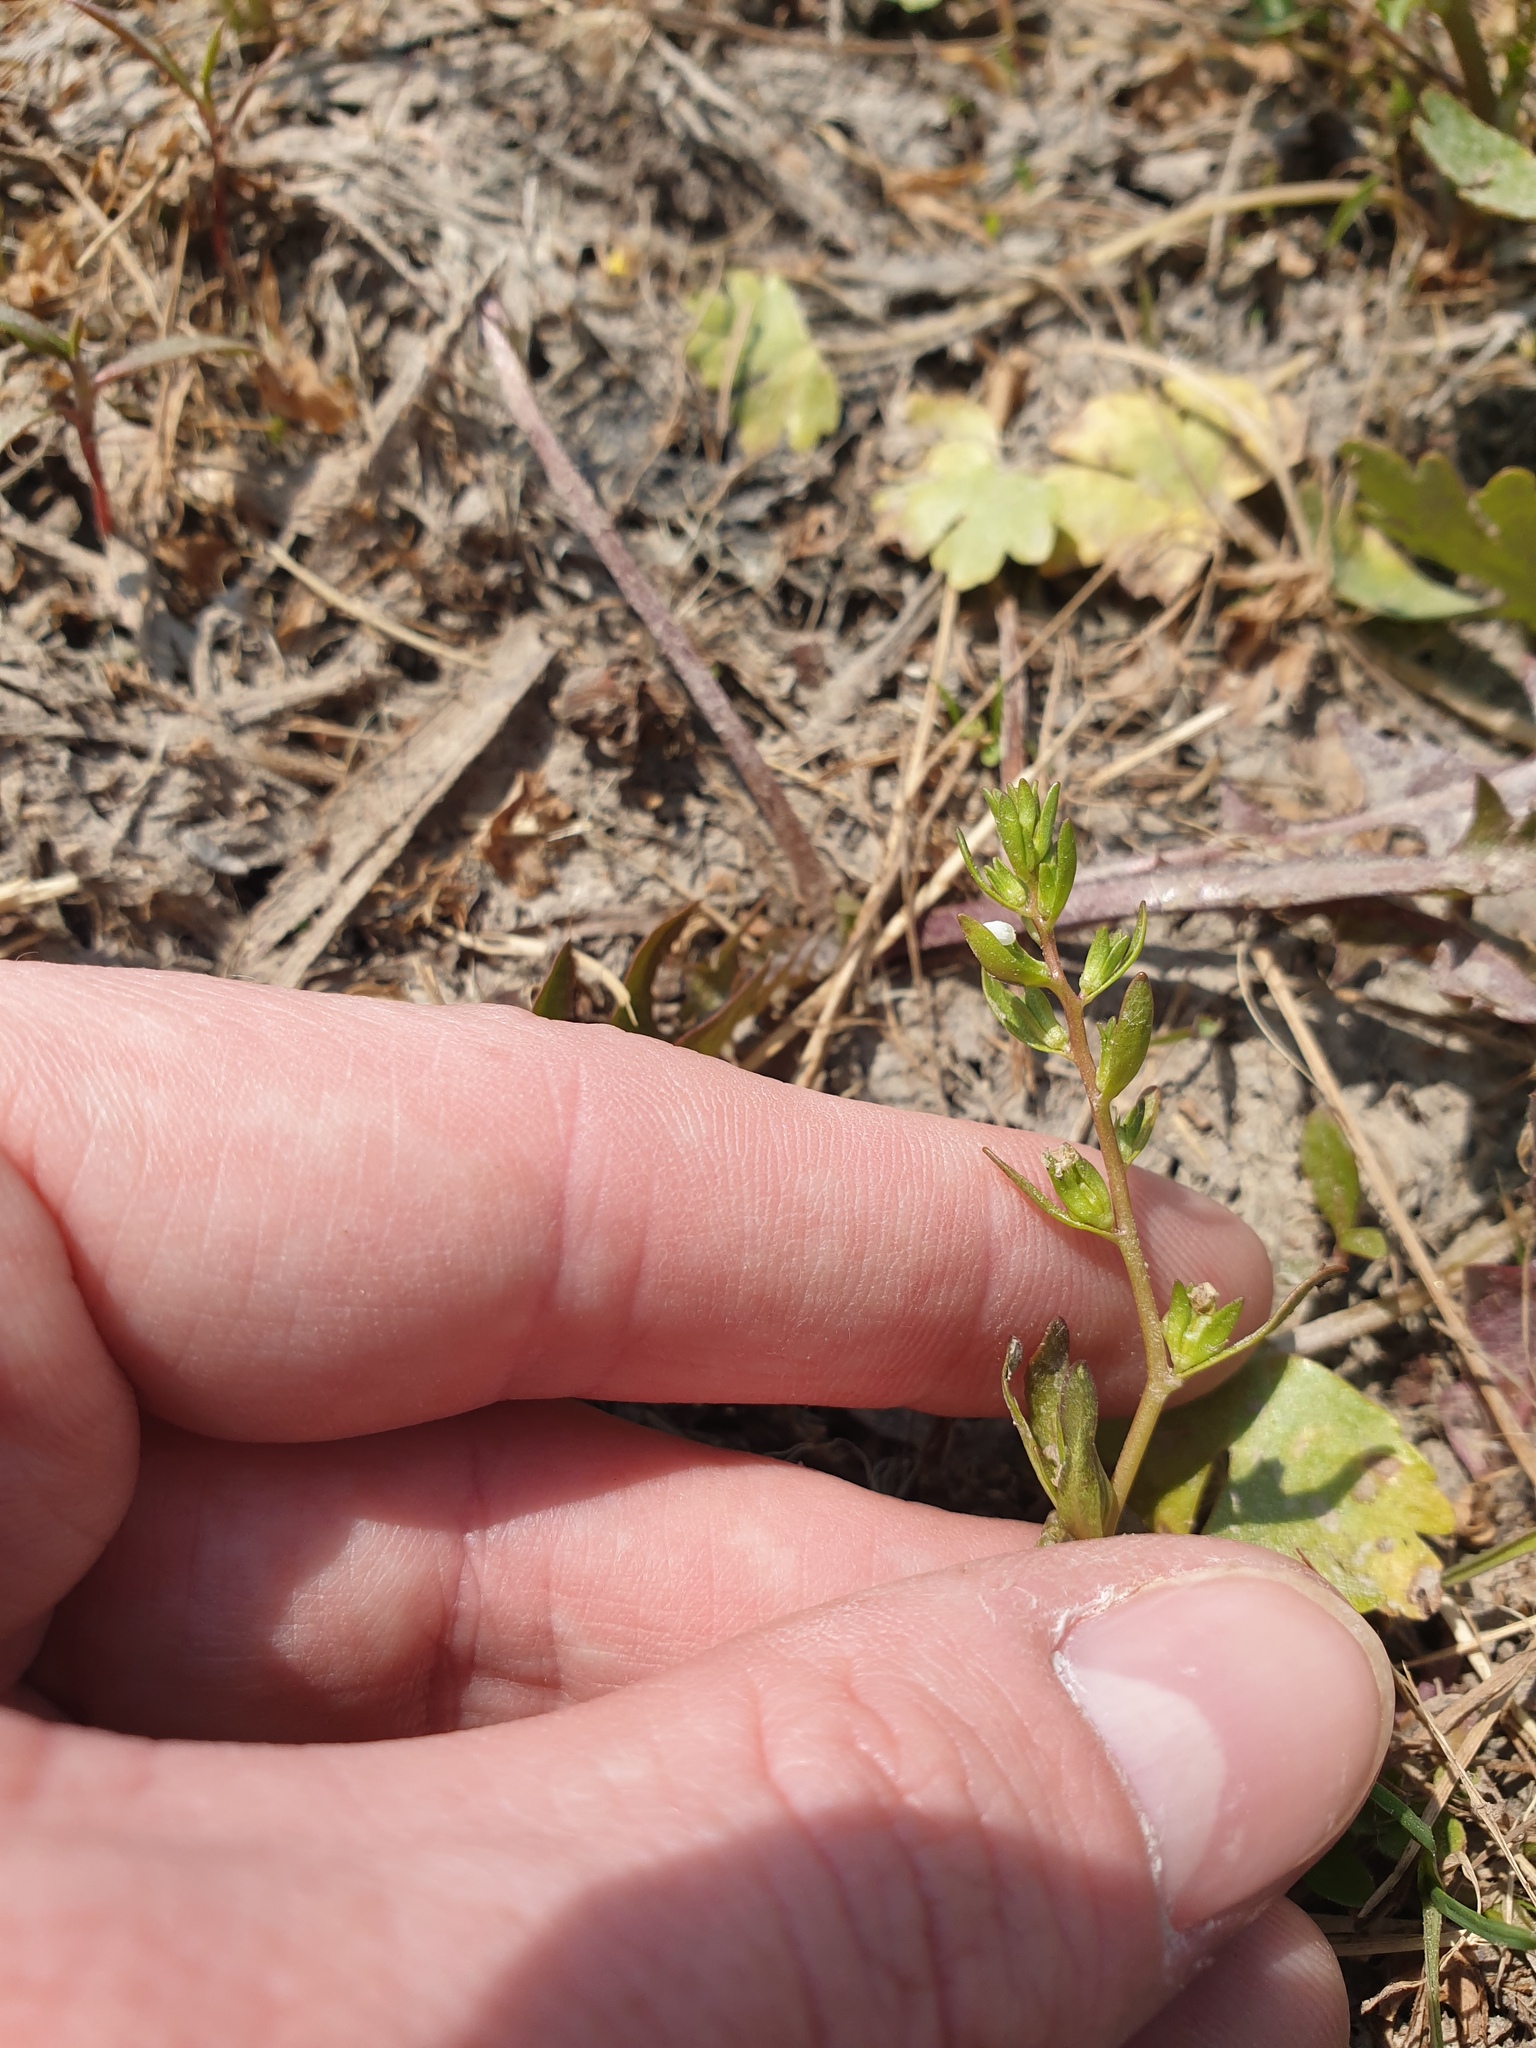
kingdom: Plantae
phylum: Tracheophyta
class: Magnoliopsida
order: Lamiales
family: Plantaginaceae
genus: Veronica
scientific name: Veronica peregrina
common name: Neckweed
